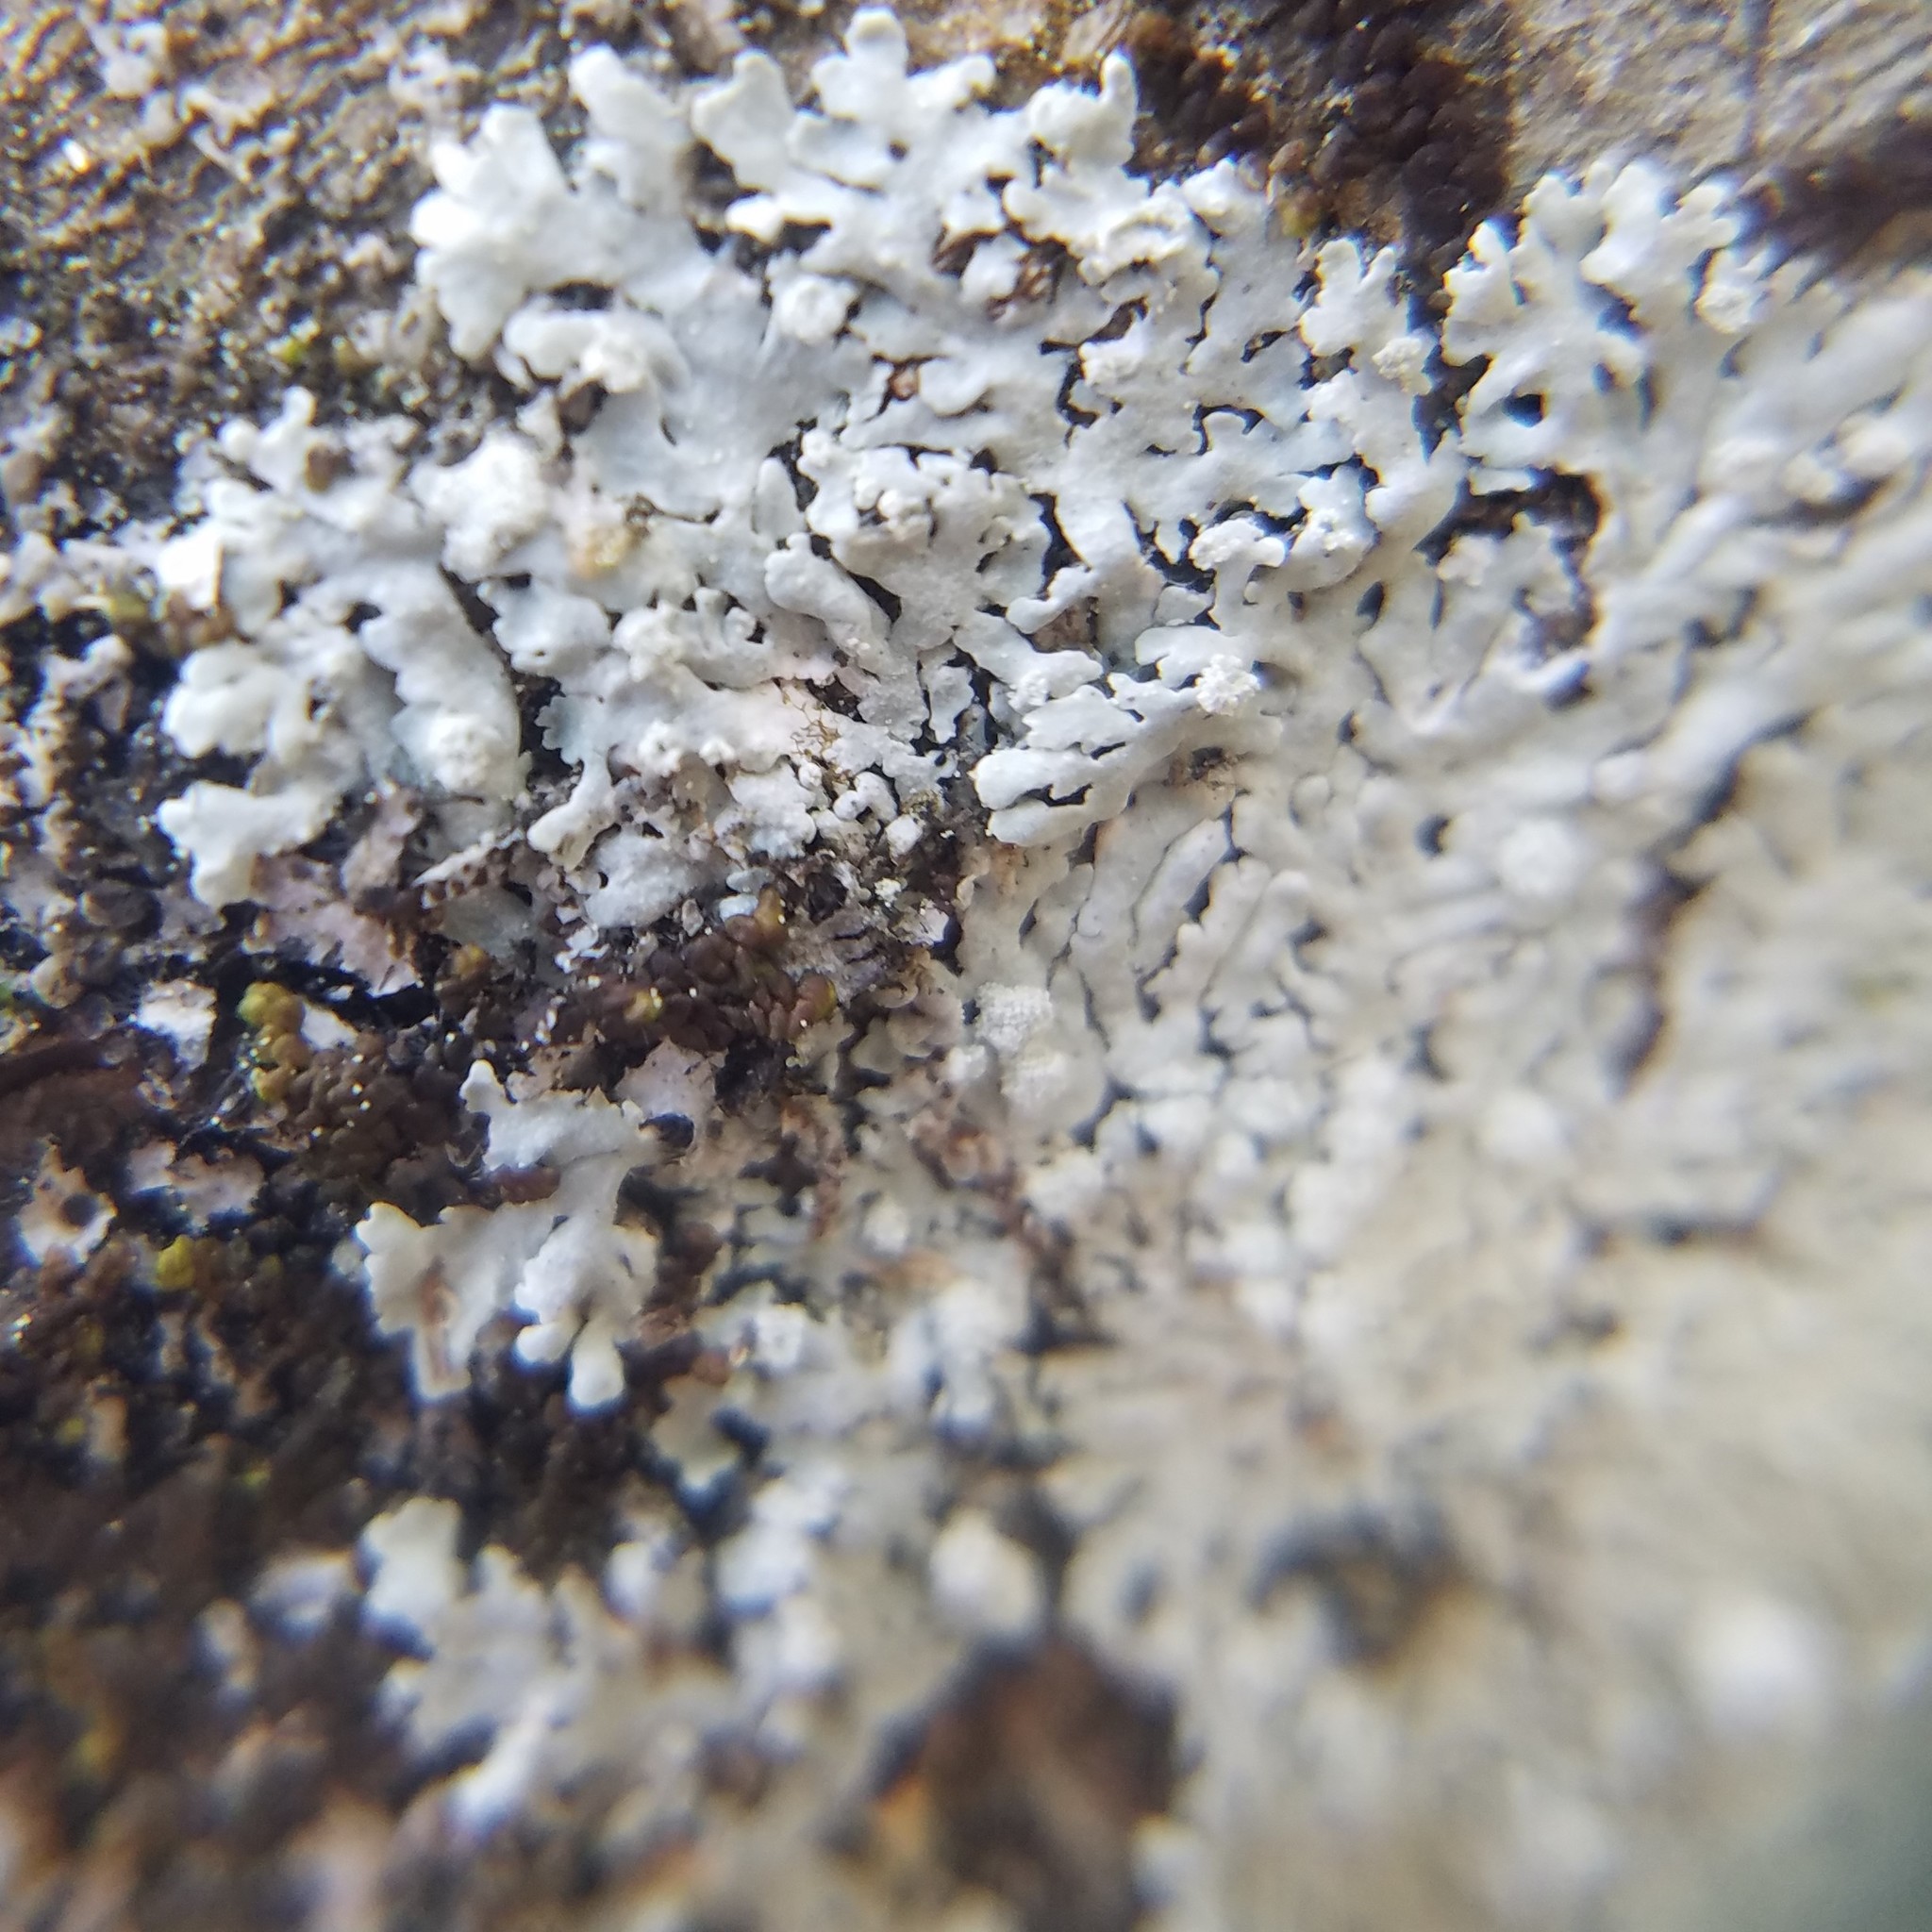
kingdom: Fungi
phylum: Ascomycota
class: Lecanoromycetes
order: Caliciales
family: Physciaceae
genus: Physcia
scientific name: Physcia americana
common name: American rosette lichen
